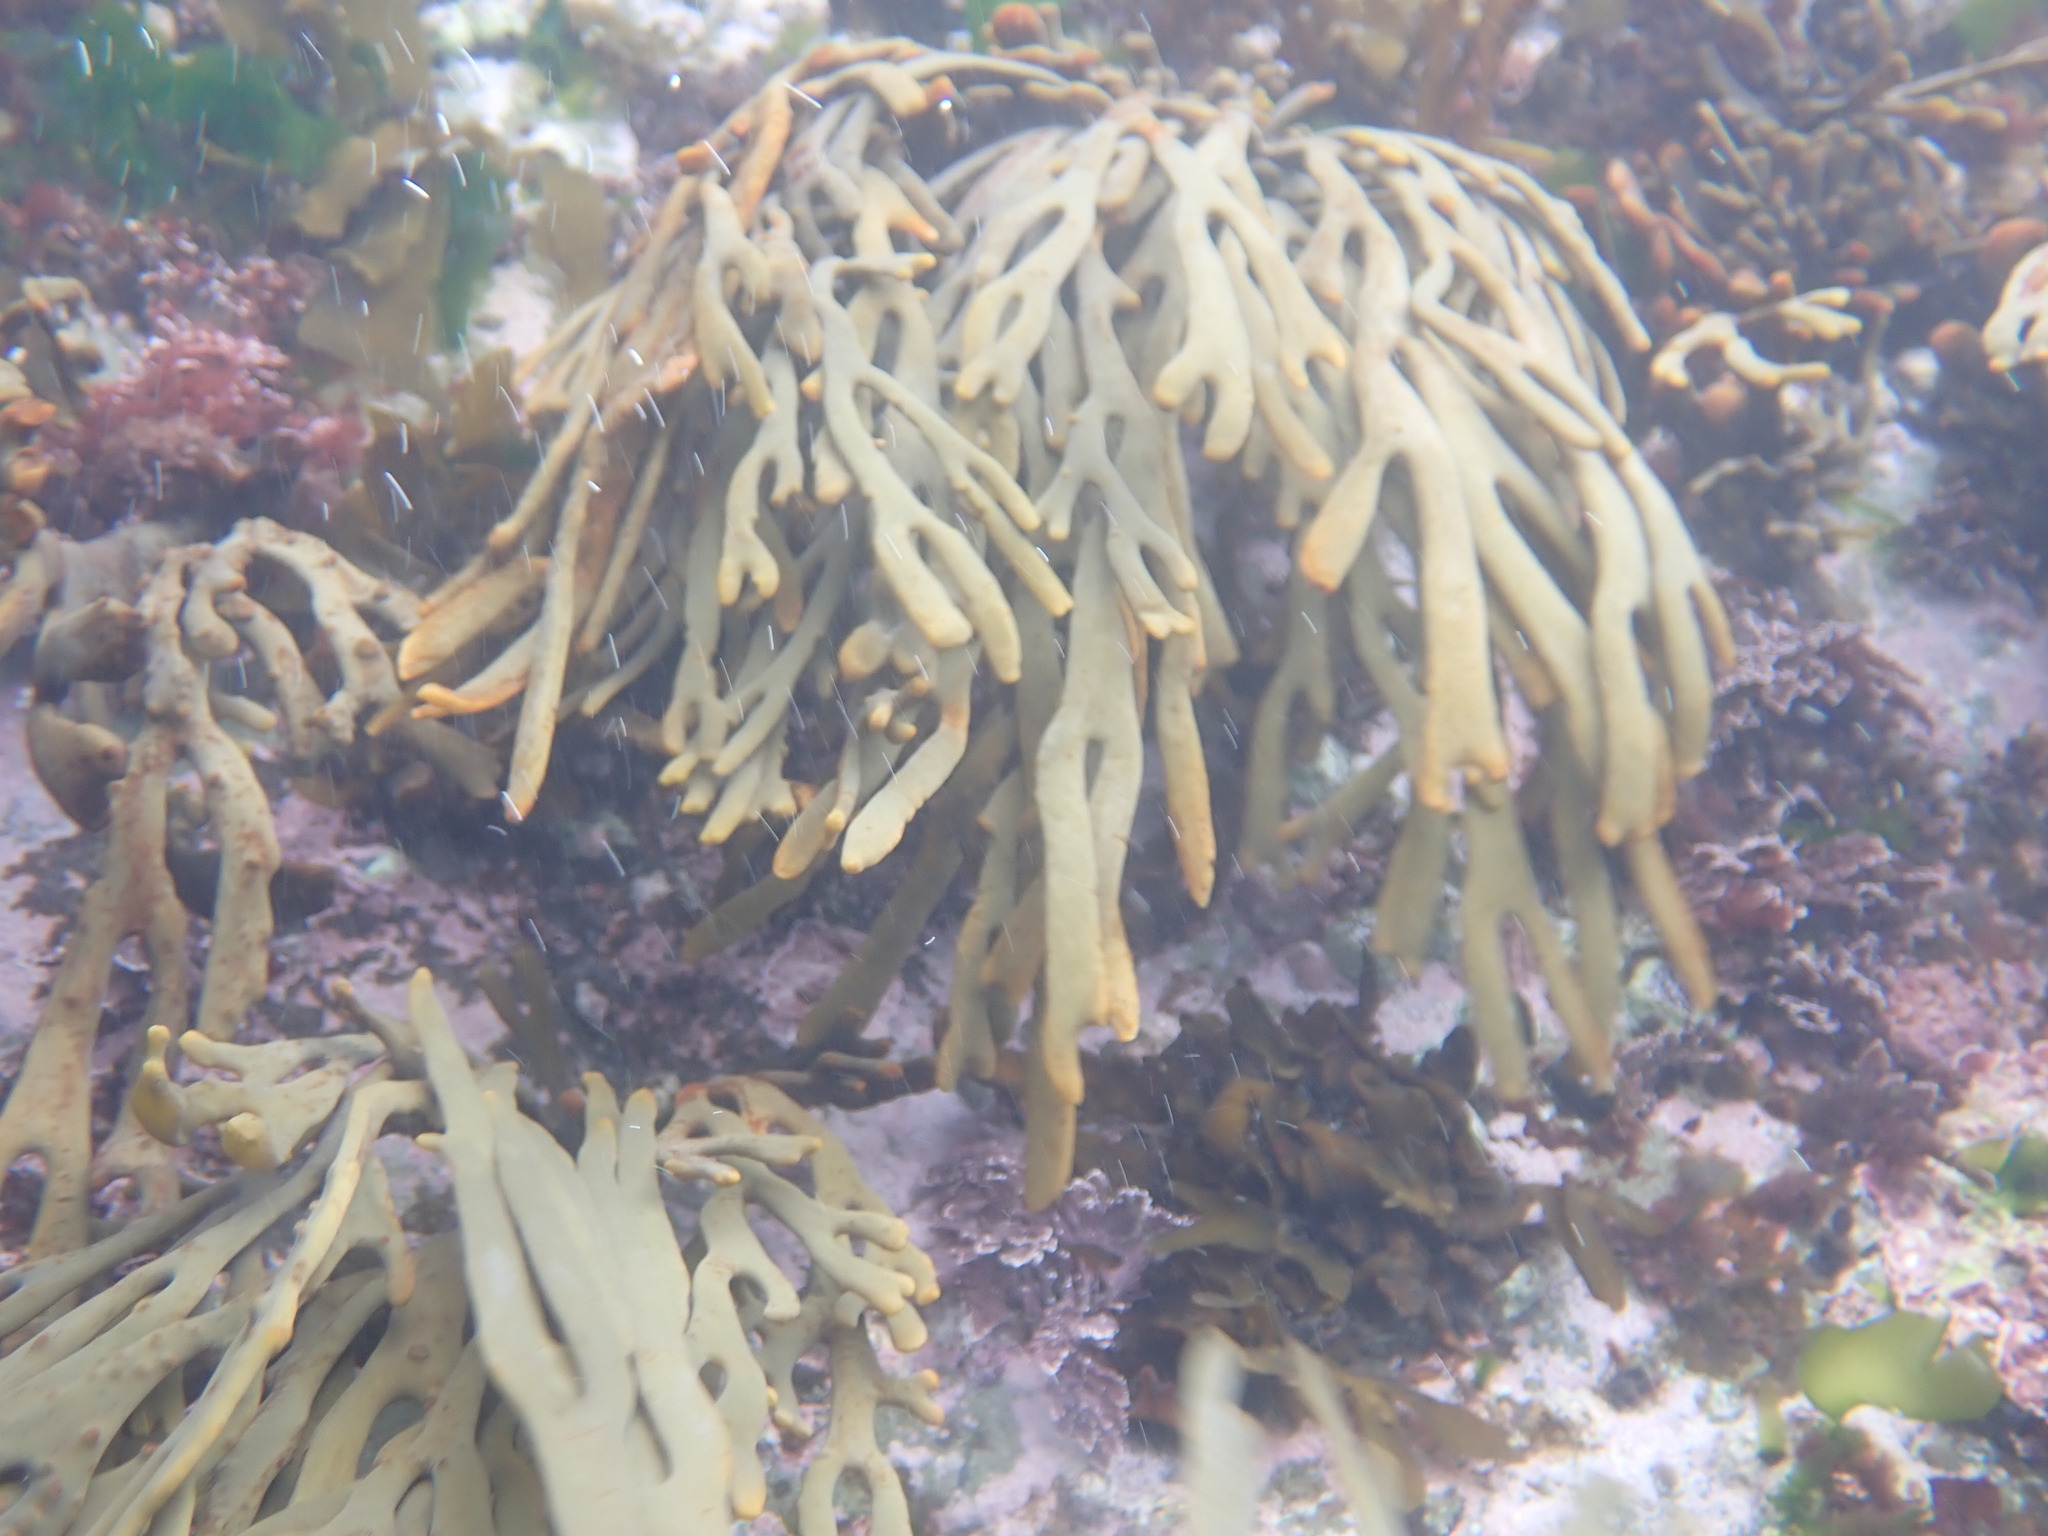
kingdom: Chromista
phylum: Ochrophyta
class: Phaeophyceae
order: Fucales
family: Xiphophoraceae
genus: Xiphophora
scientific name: Xiphophora gladiata
